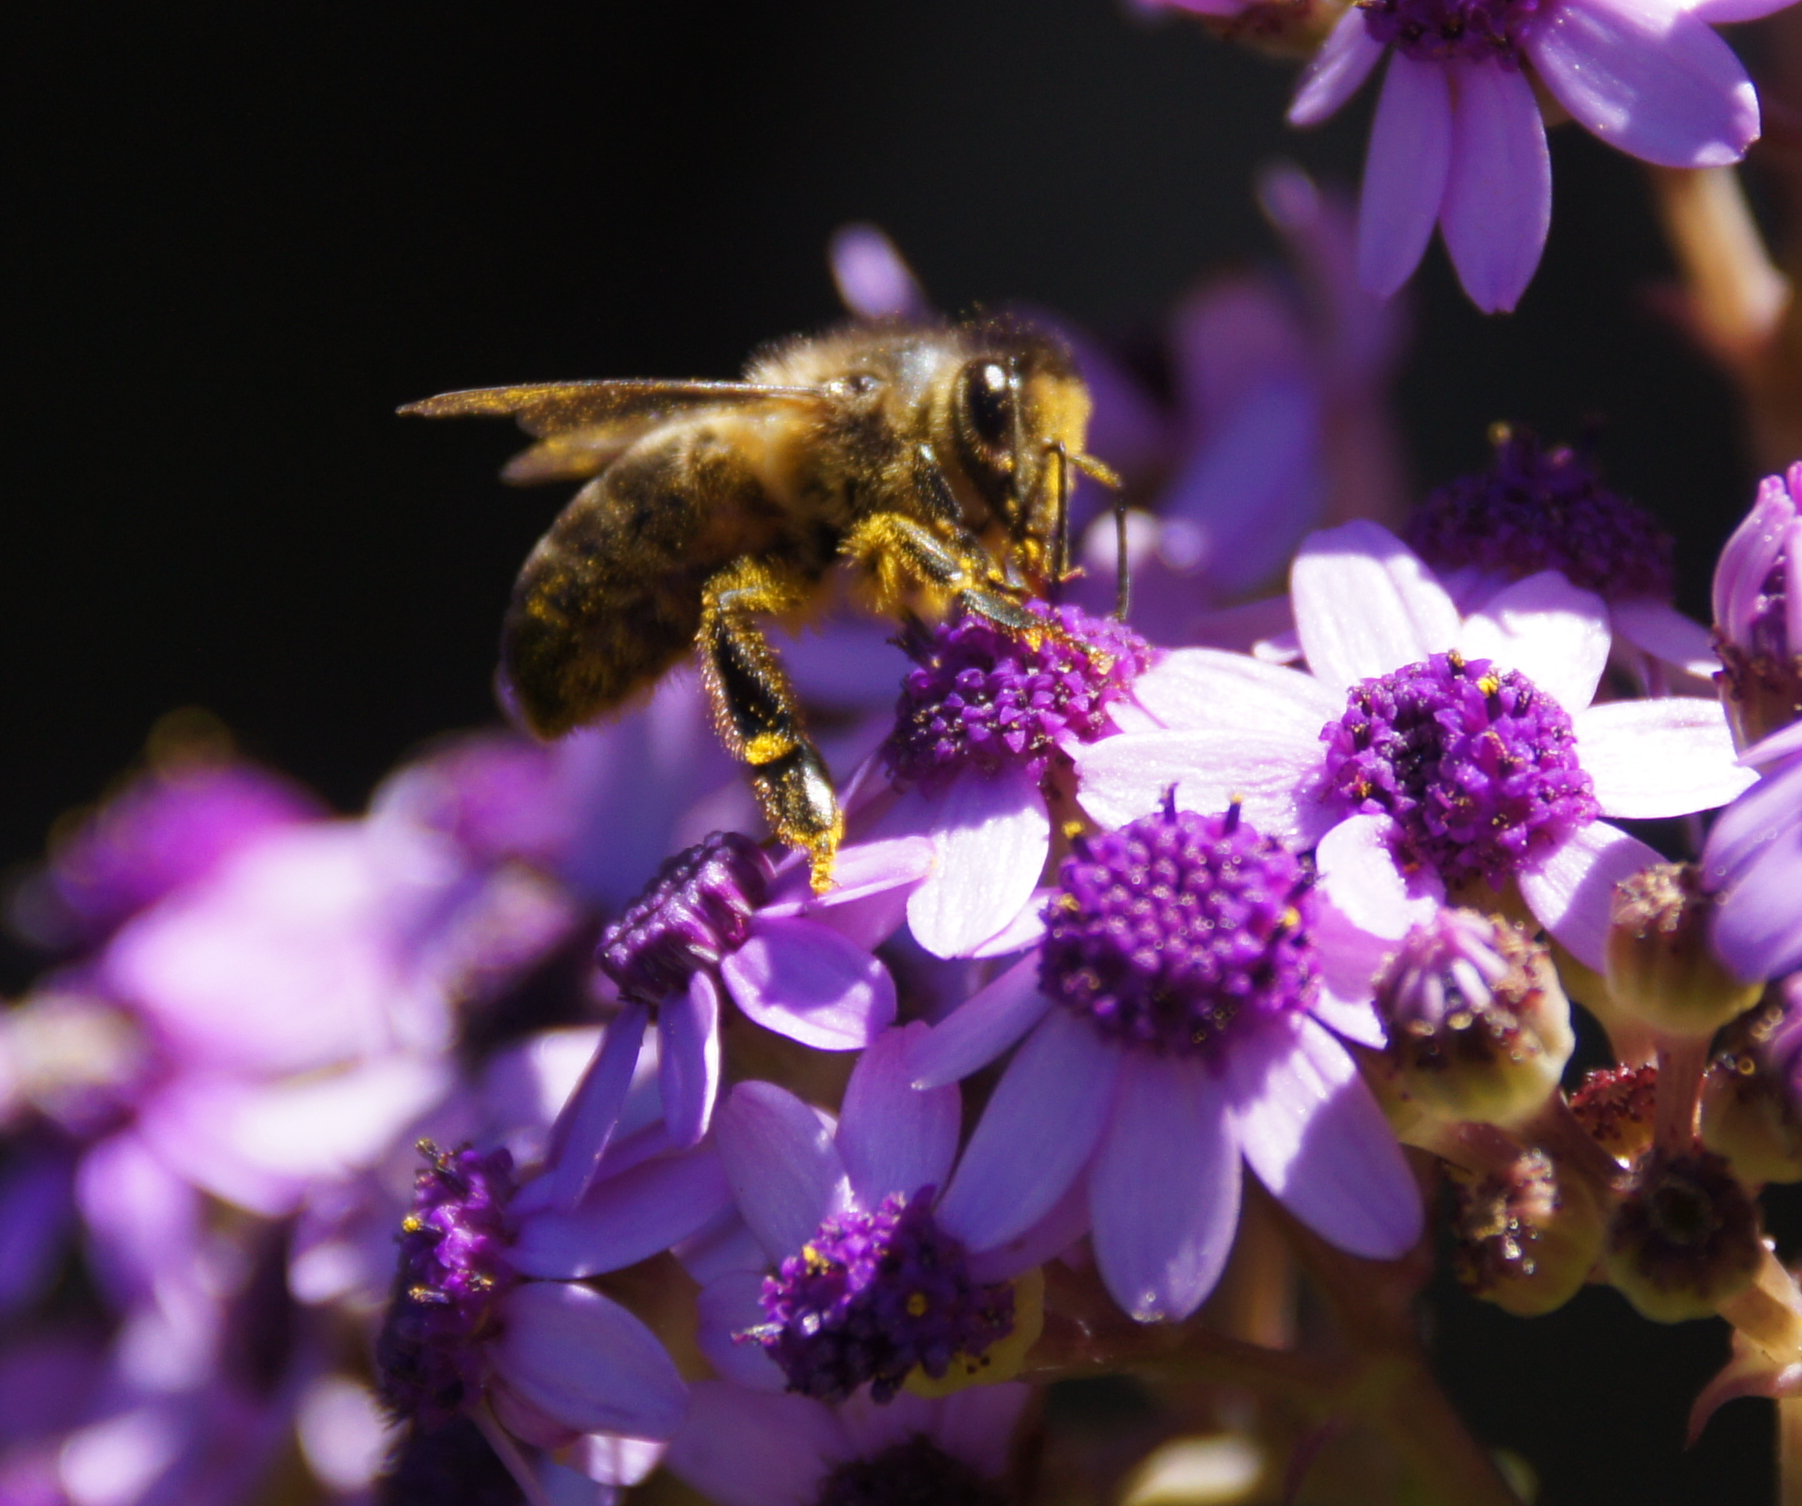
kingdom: Animalia
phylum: Arthropoda
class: Insecta
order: Hymenoptera
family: Apidae
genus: Apis
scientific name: Apis mellifera
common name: Honey bee
